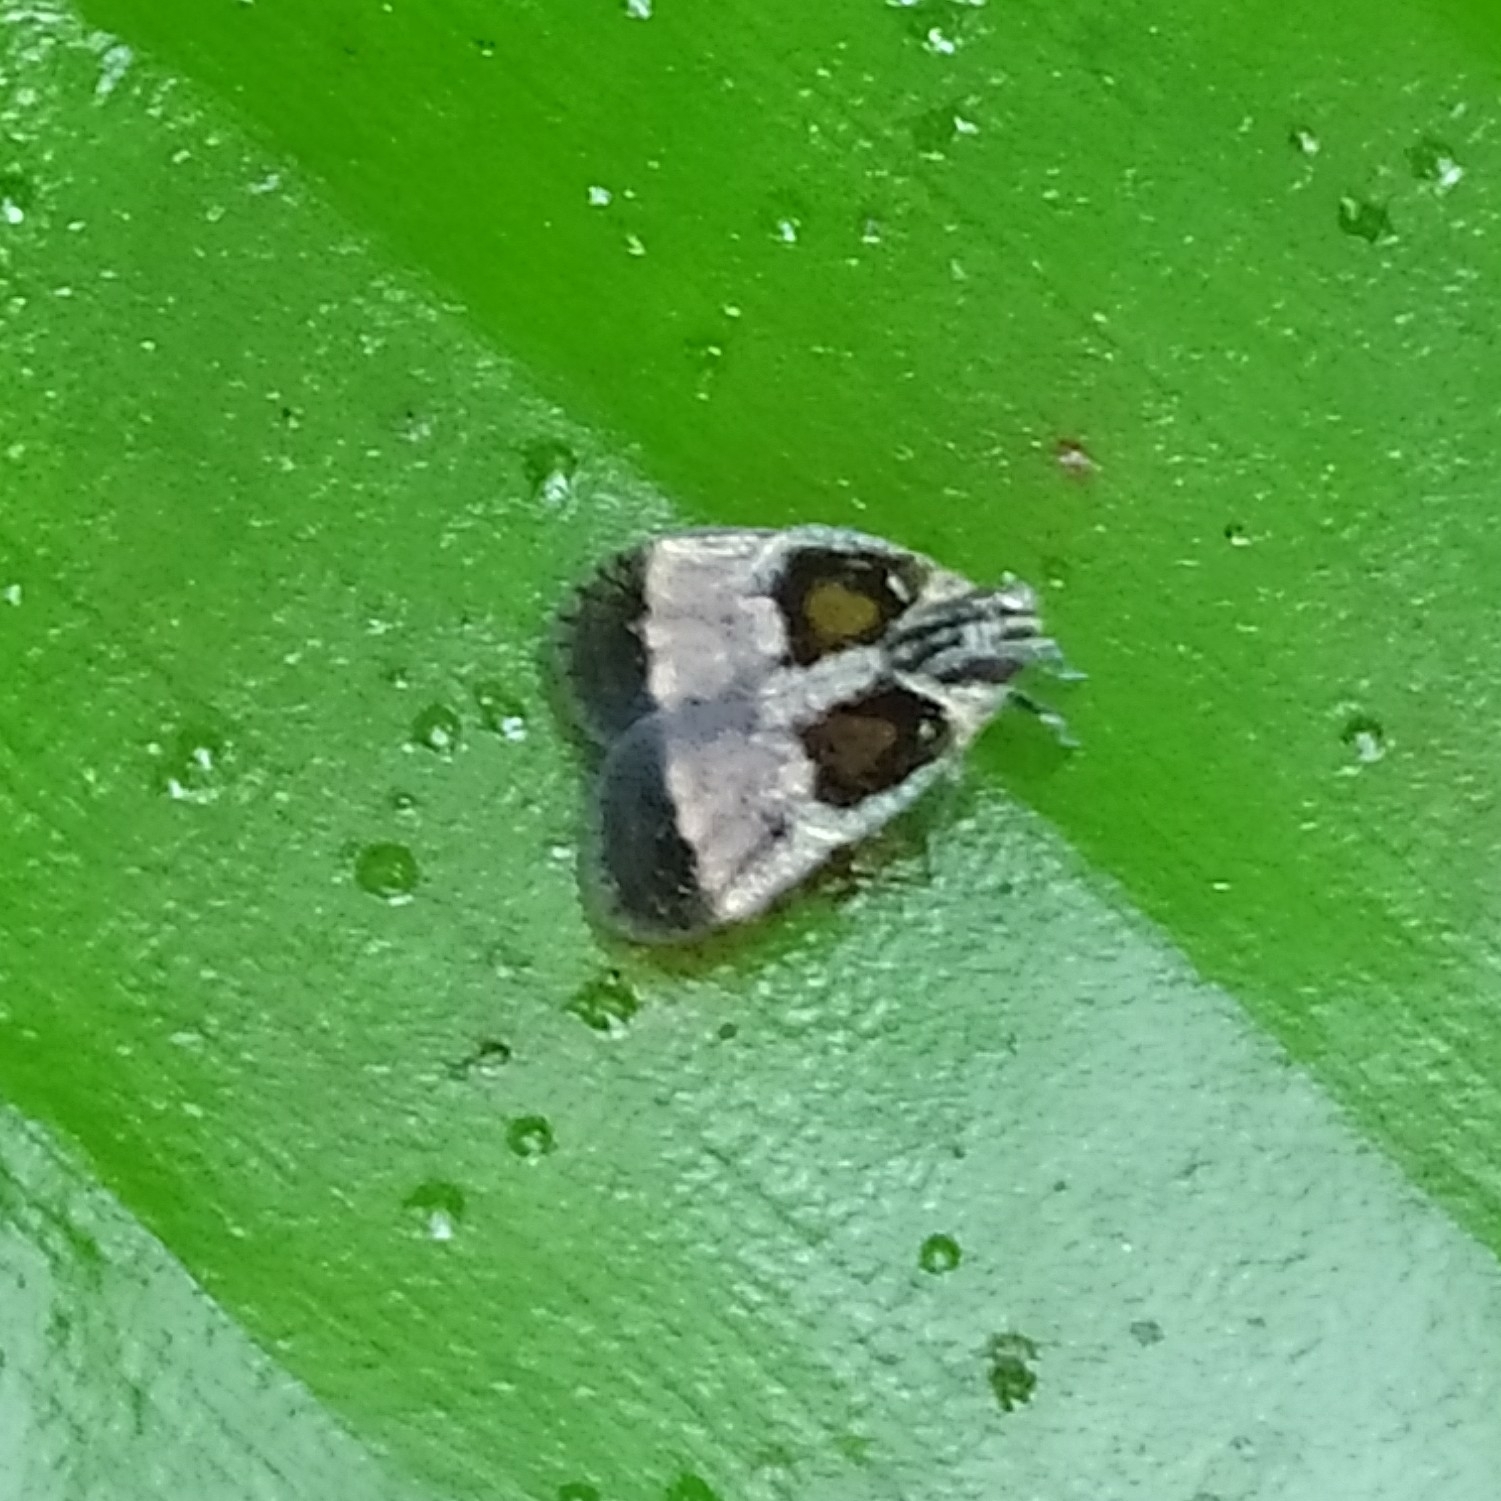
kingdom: Animalia
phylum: Arthropoda
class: Insecta
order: Hemiptera
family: Cixiidae
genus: Bothriocera
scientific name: Bothriocera
